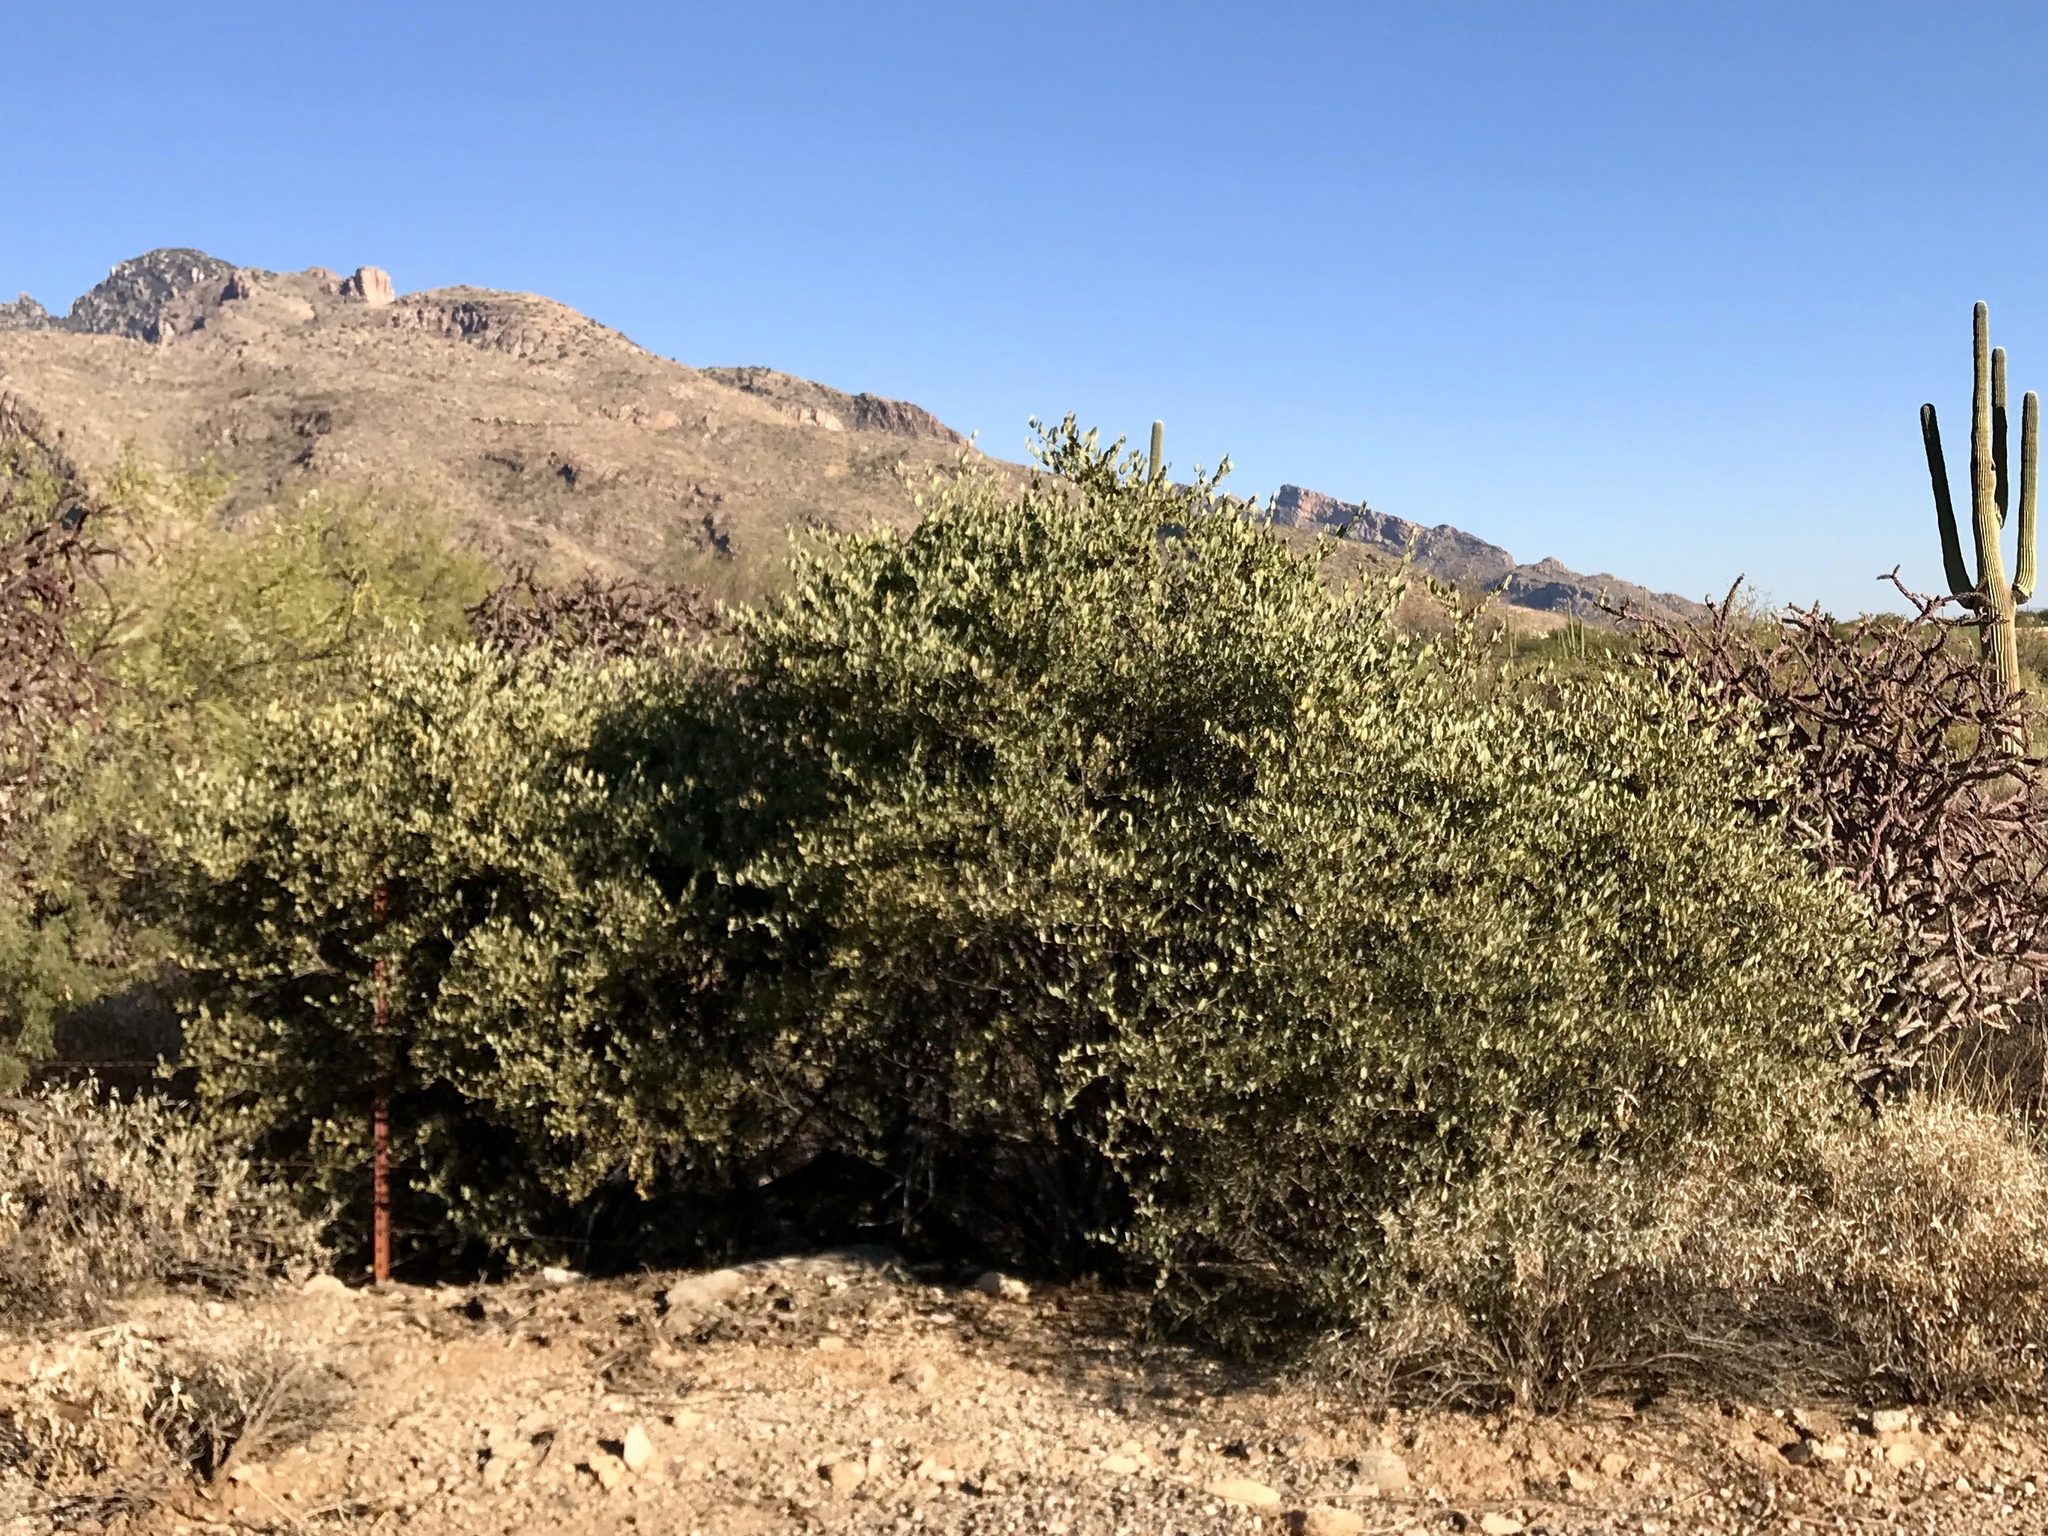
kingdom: Plantae
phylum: Tracheophyta
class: Magnoliopsida
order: Caryophyllales
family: Simmondsiaceae
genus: Simmondsia
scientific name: Simmondsia chinensis
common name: Jojoba
